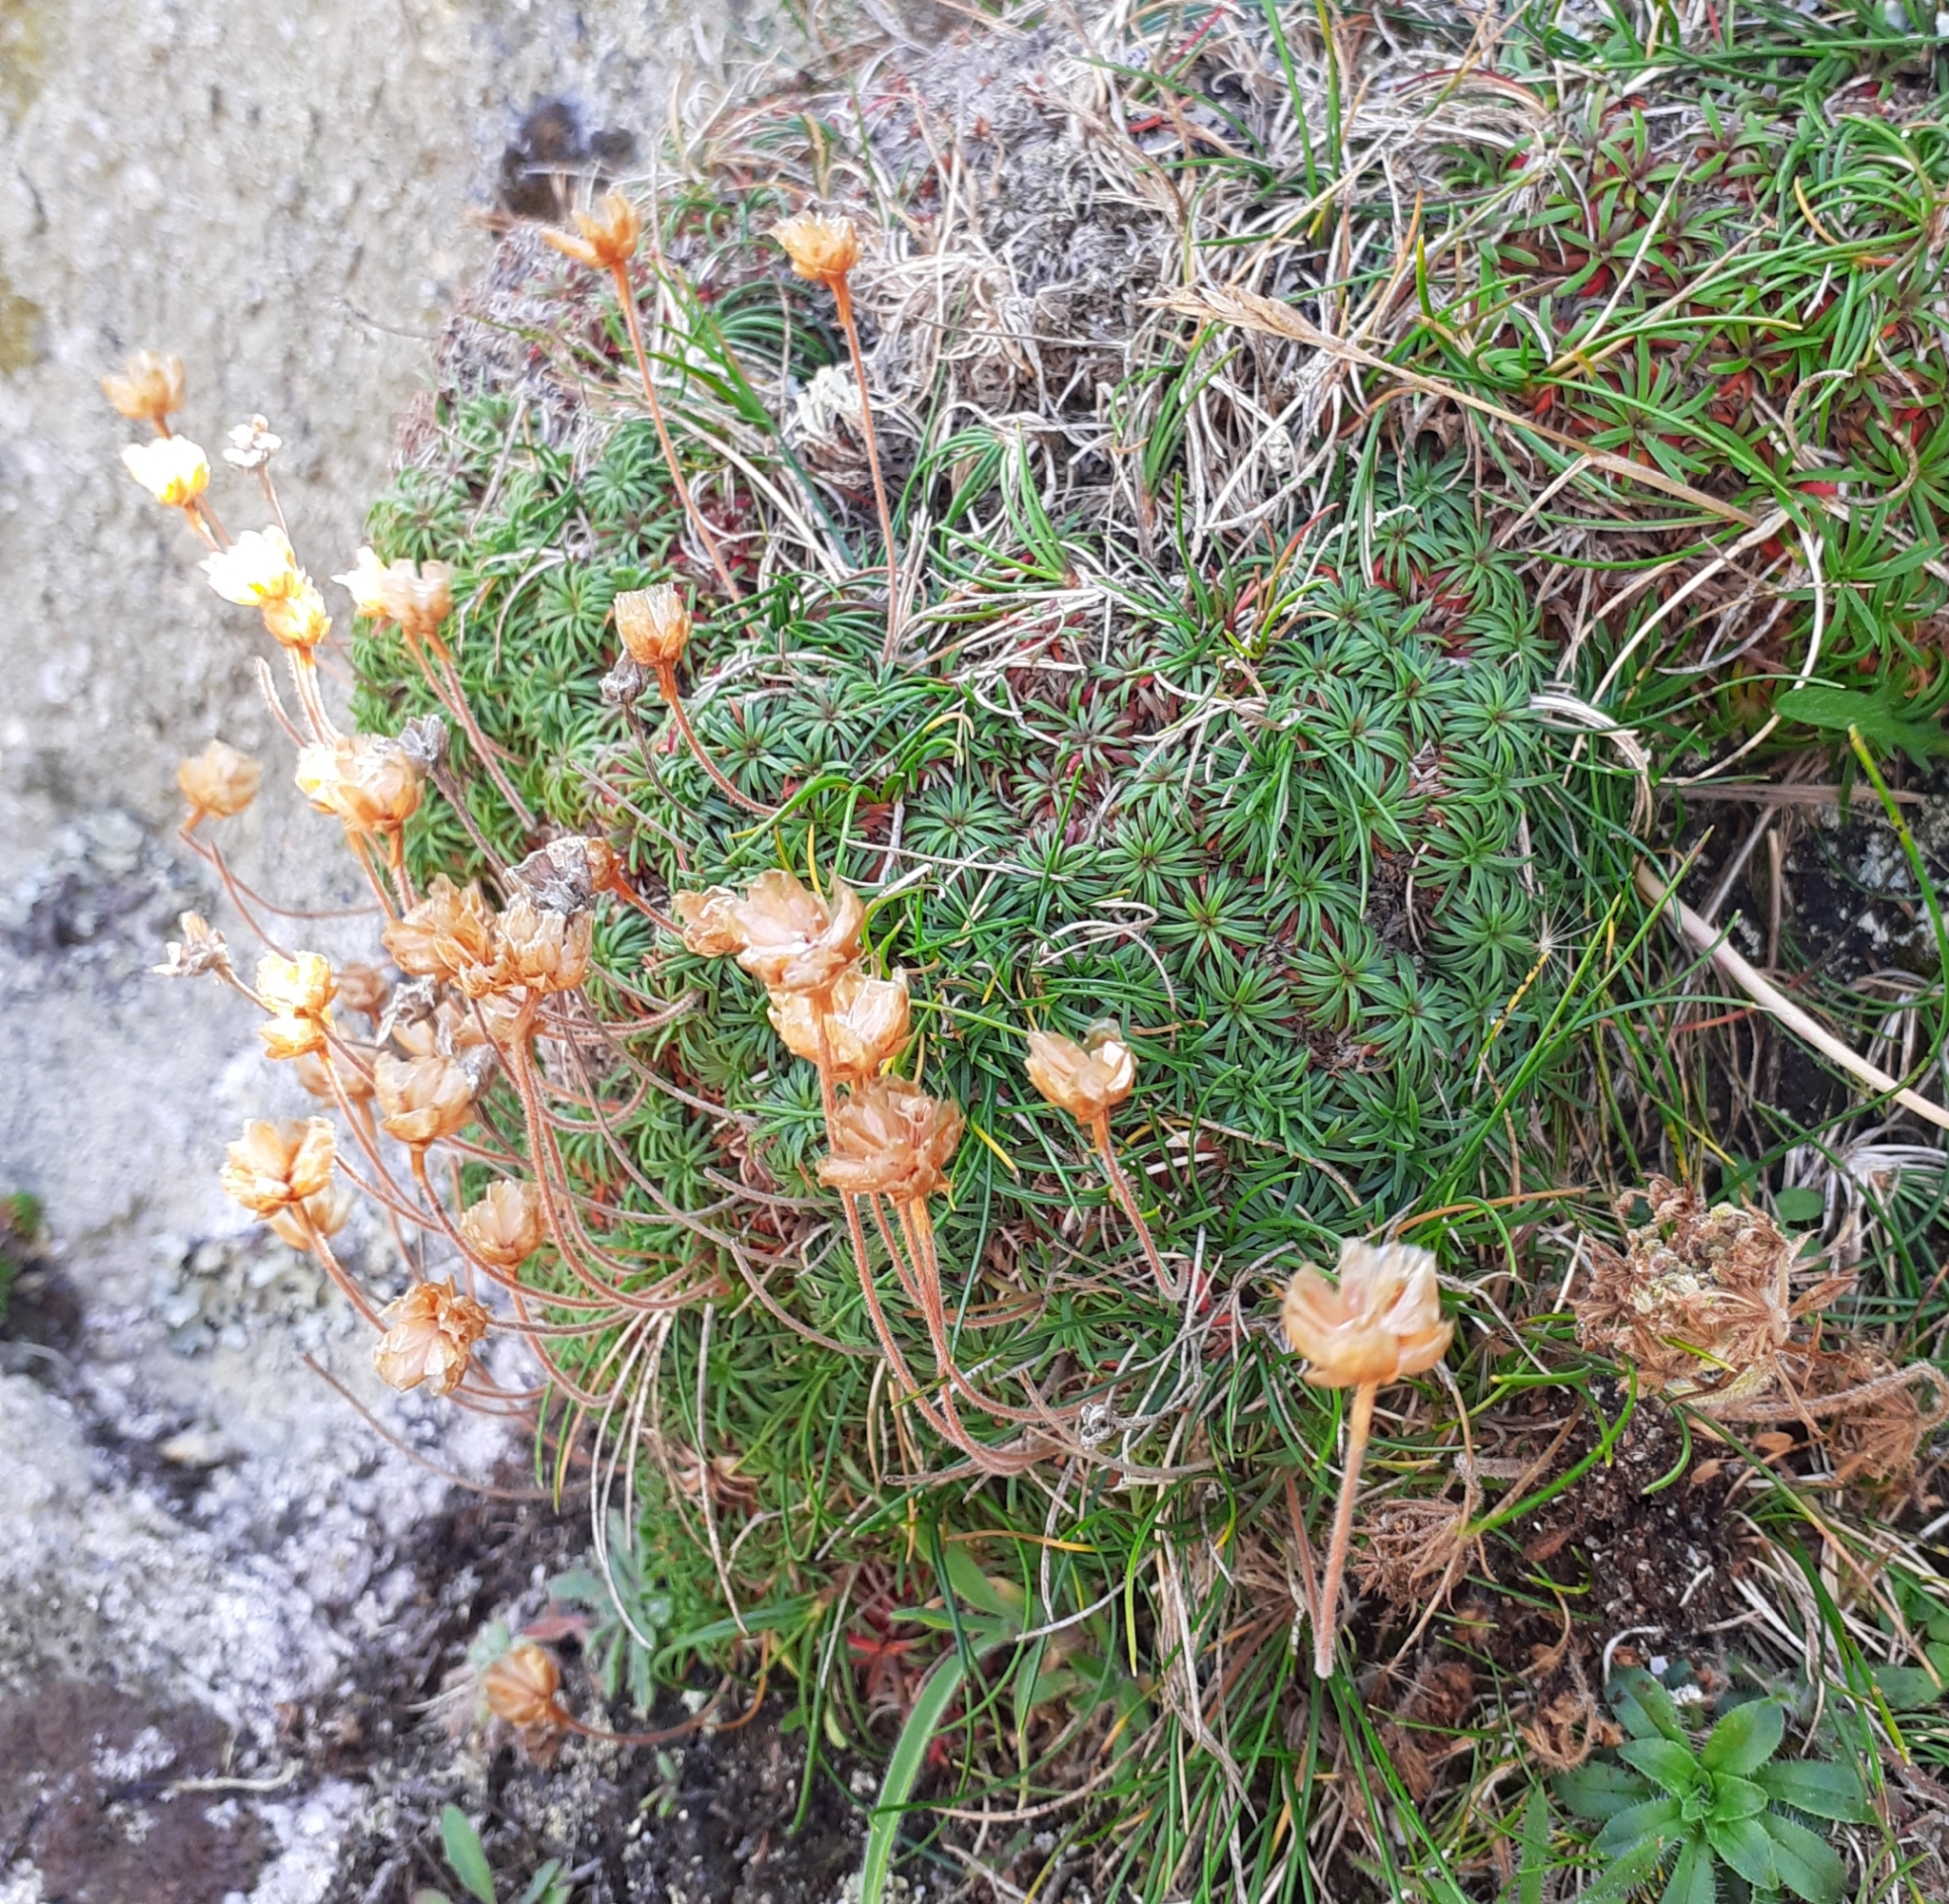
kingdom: Plantae
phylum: Tracheophyta
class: Magnoliopsida
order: Caryophyllales
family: Plumbaginaceae
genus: Armeria
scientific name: Armeria maritima
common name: Thrift
